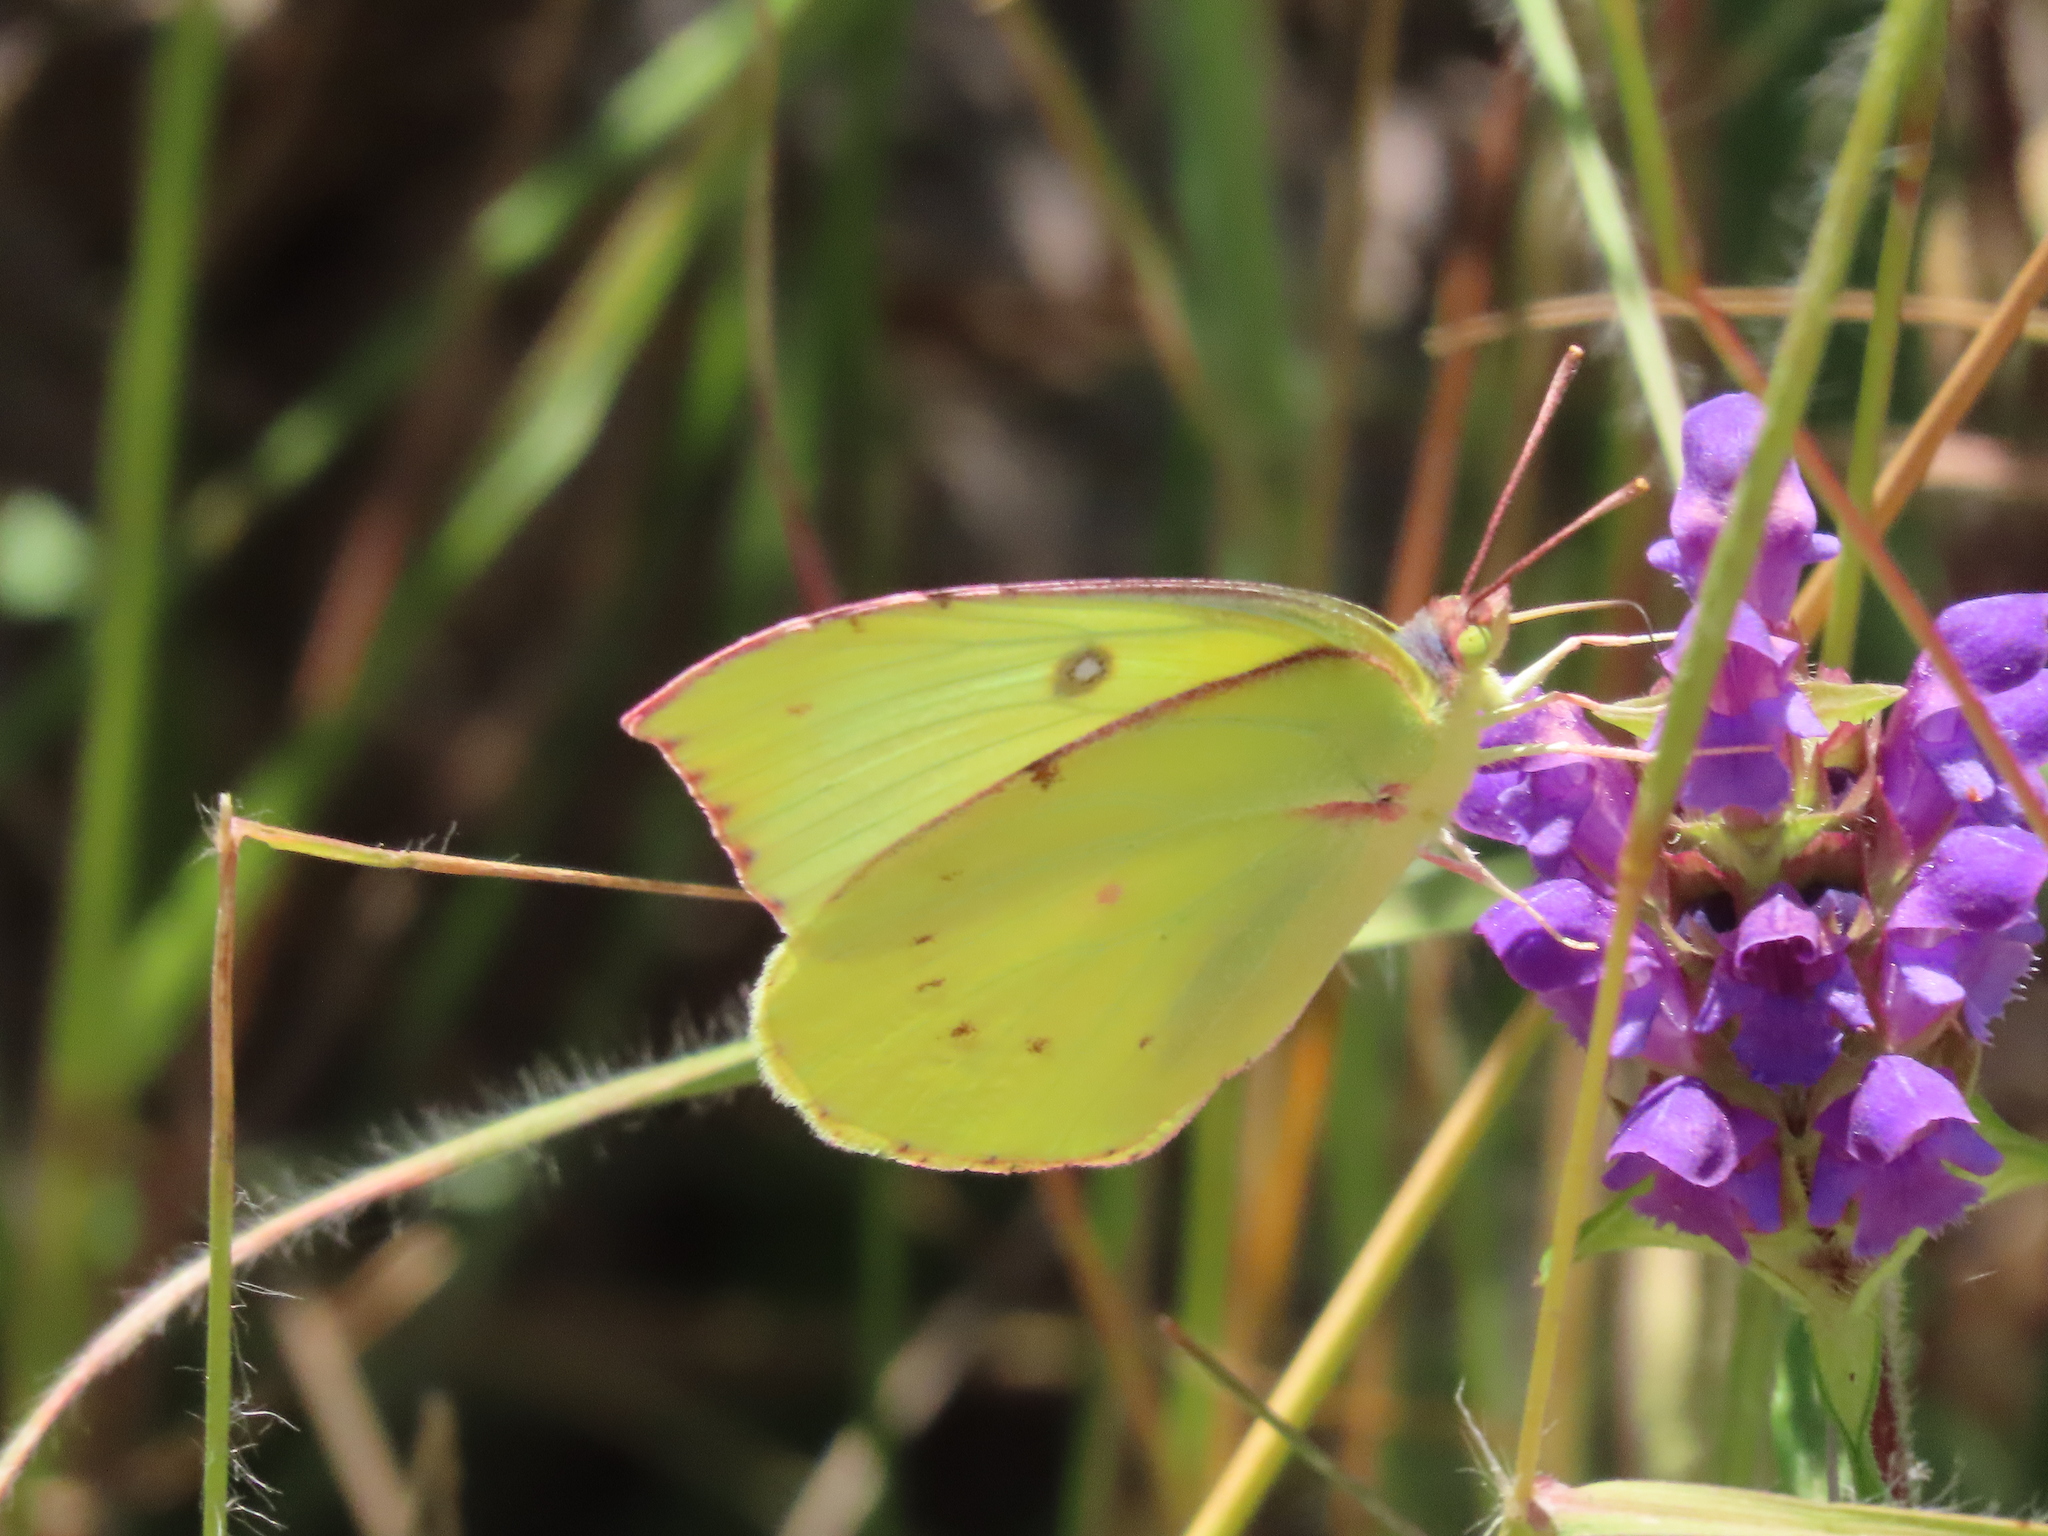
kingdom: Animalia
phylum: Arthropoda
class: Insecta
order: Lepidoptera
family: Pieridae
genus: Zerene
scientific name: Zerene eurydice
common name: California dogface
